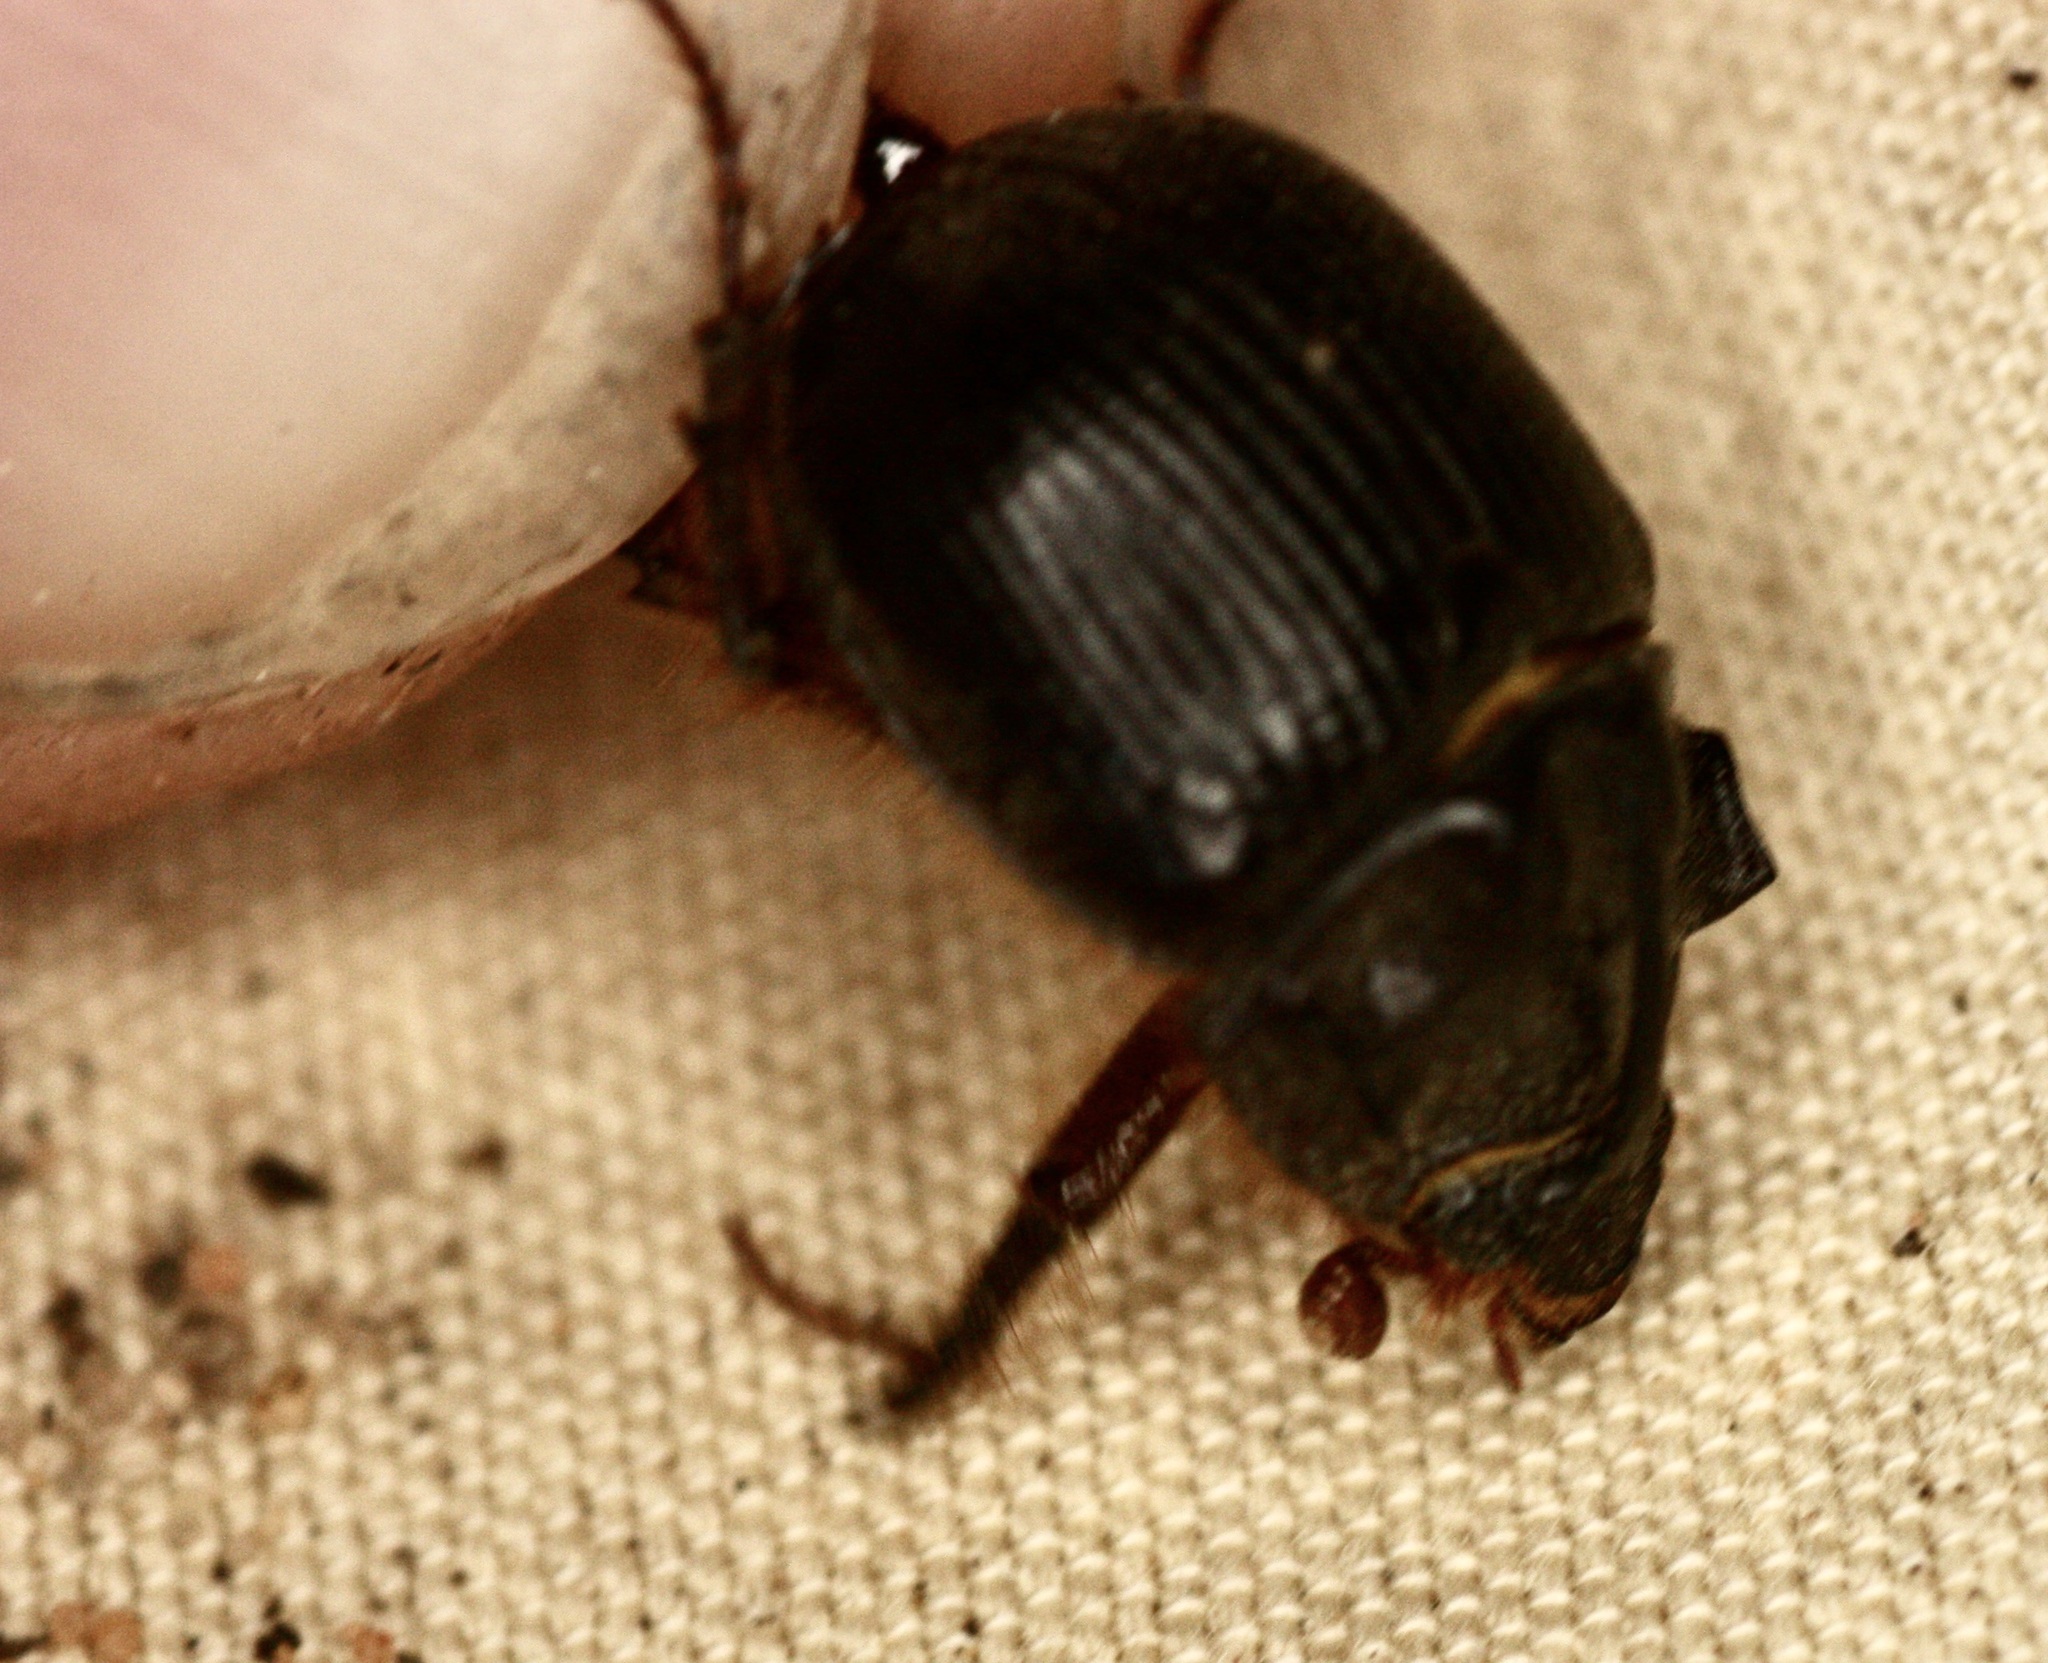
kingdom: Animalia
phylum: Arthropoda
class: Insecta
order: Coleoptera
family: Geotrupidae
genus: Odonteus
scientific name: Odonteus obesus
